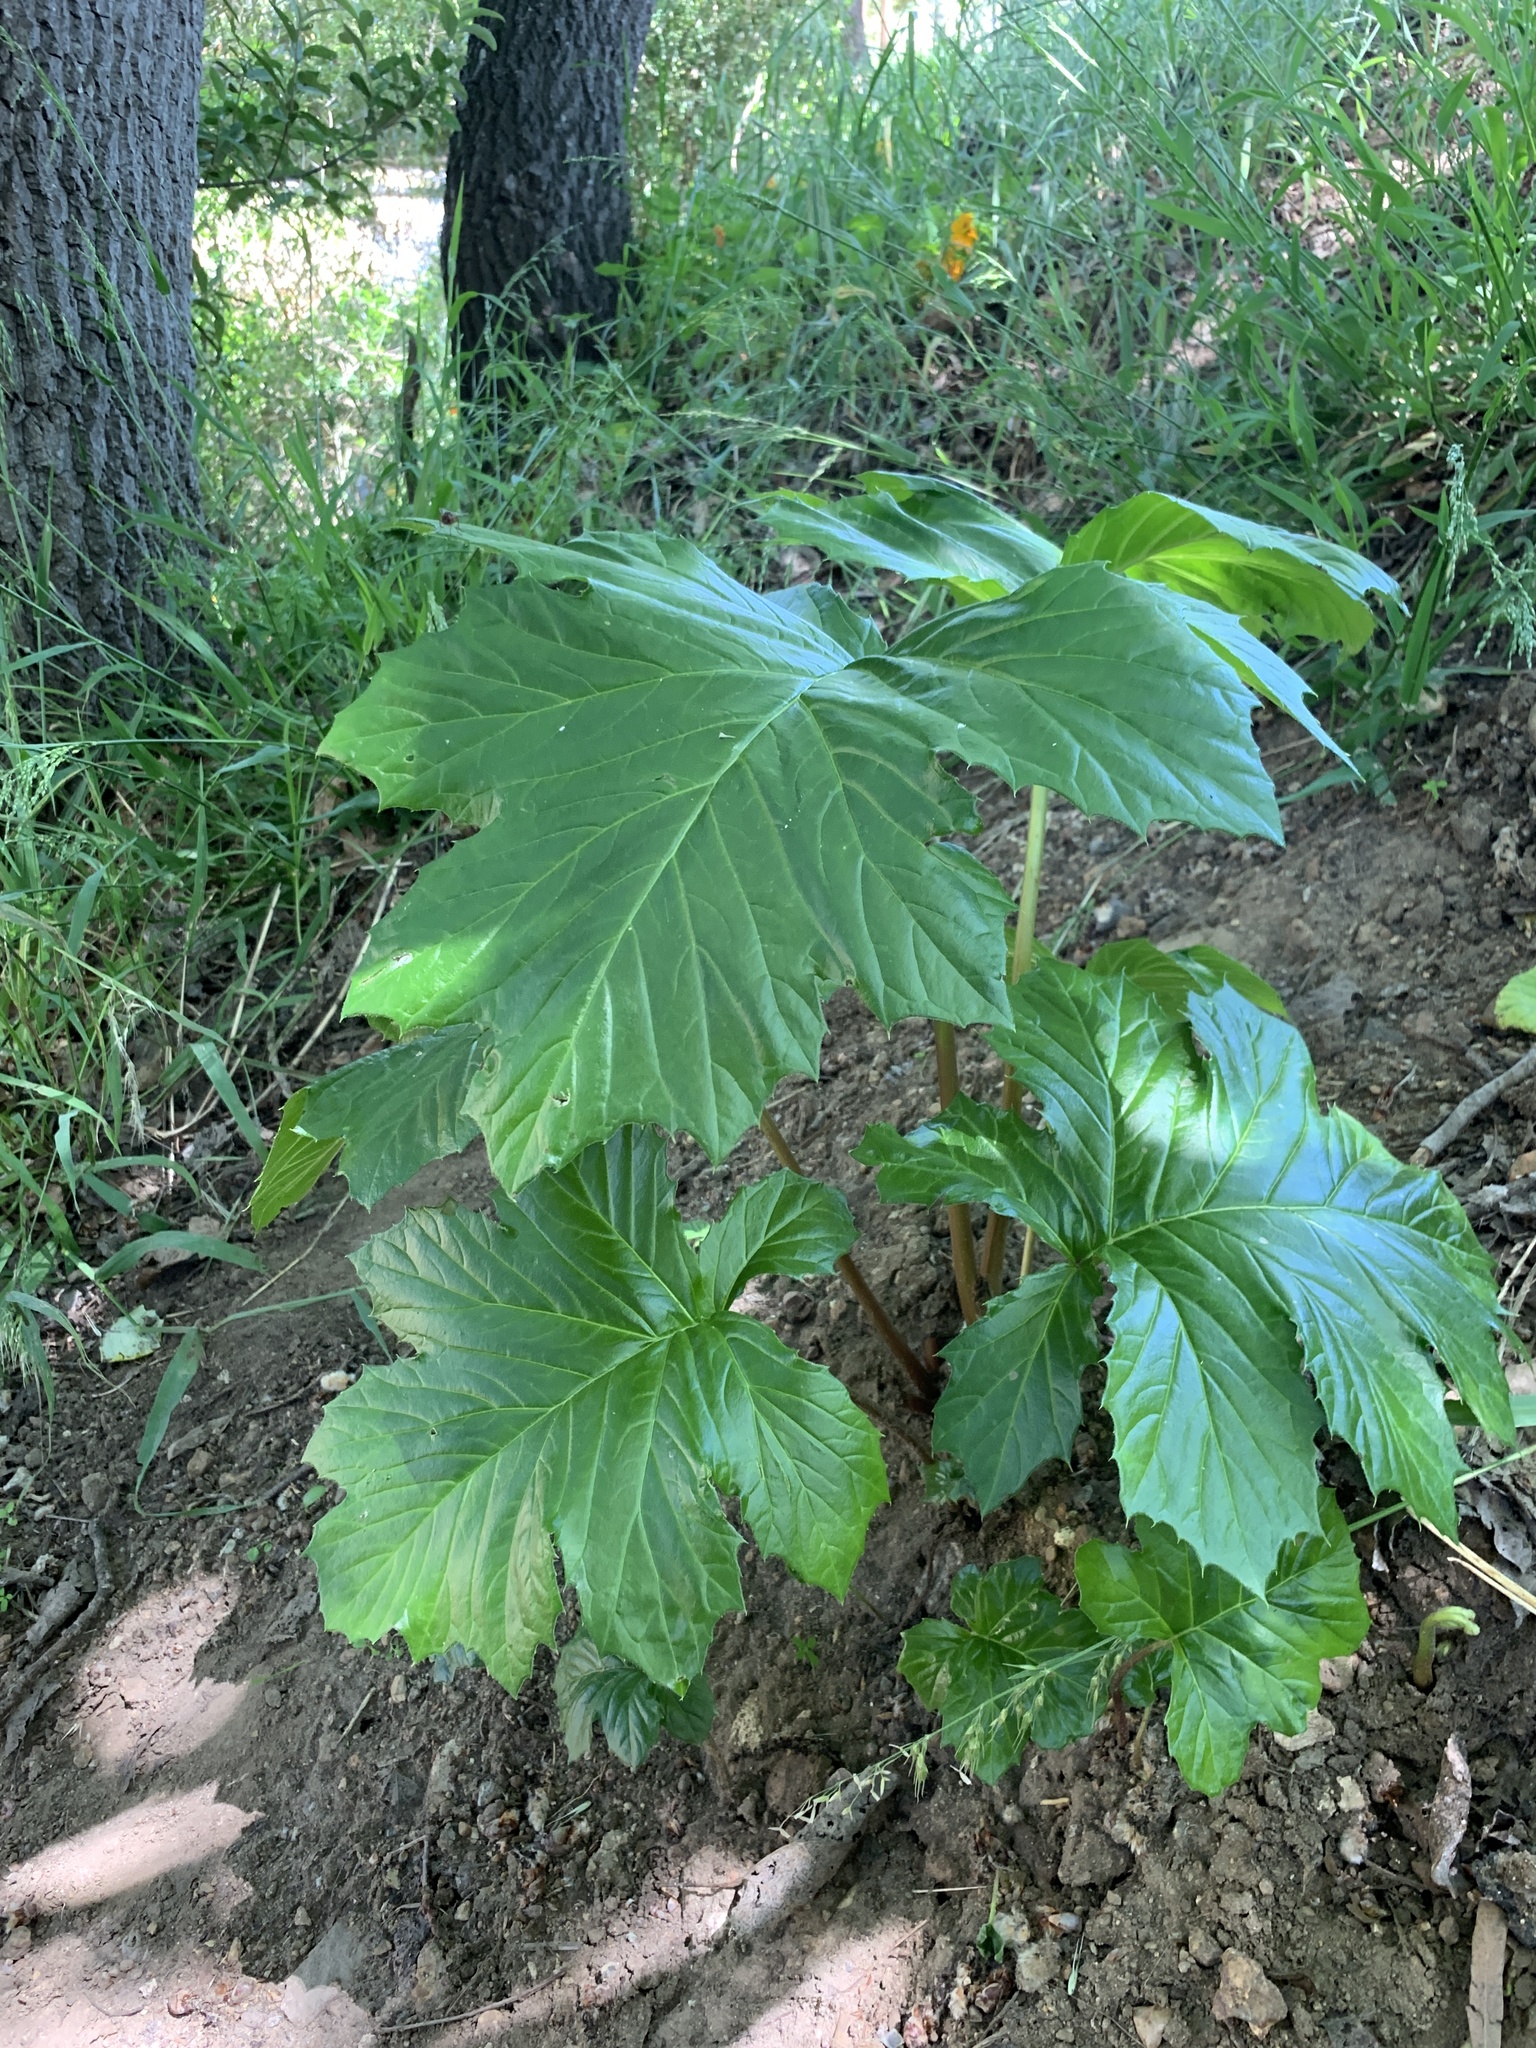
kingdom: Plantae
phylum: Tracheophyta
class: Magnoliopsida
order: Lamiales
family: Acanthaceae
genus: Acanthus
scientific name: Acanthus mollis
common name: Bear's-breech
